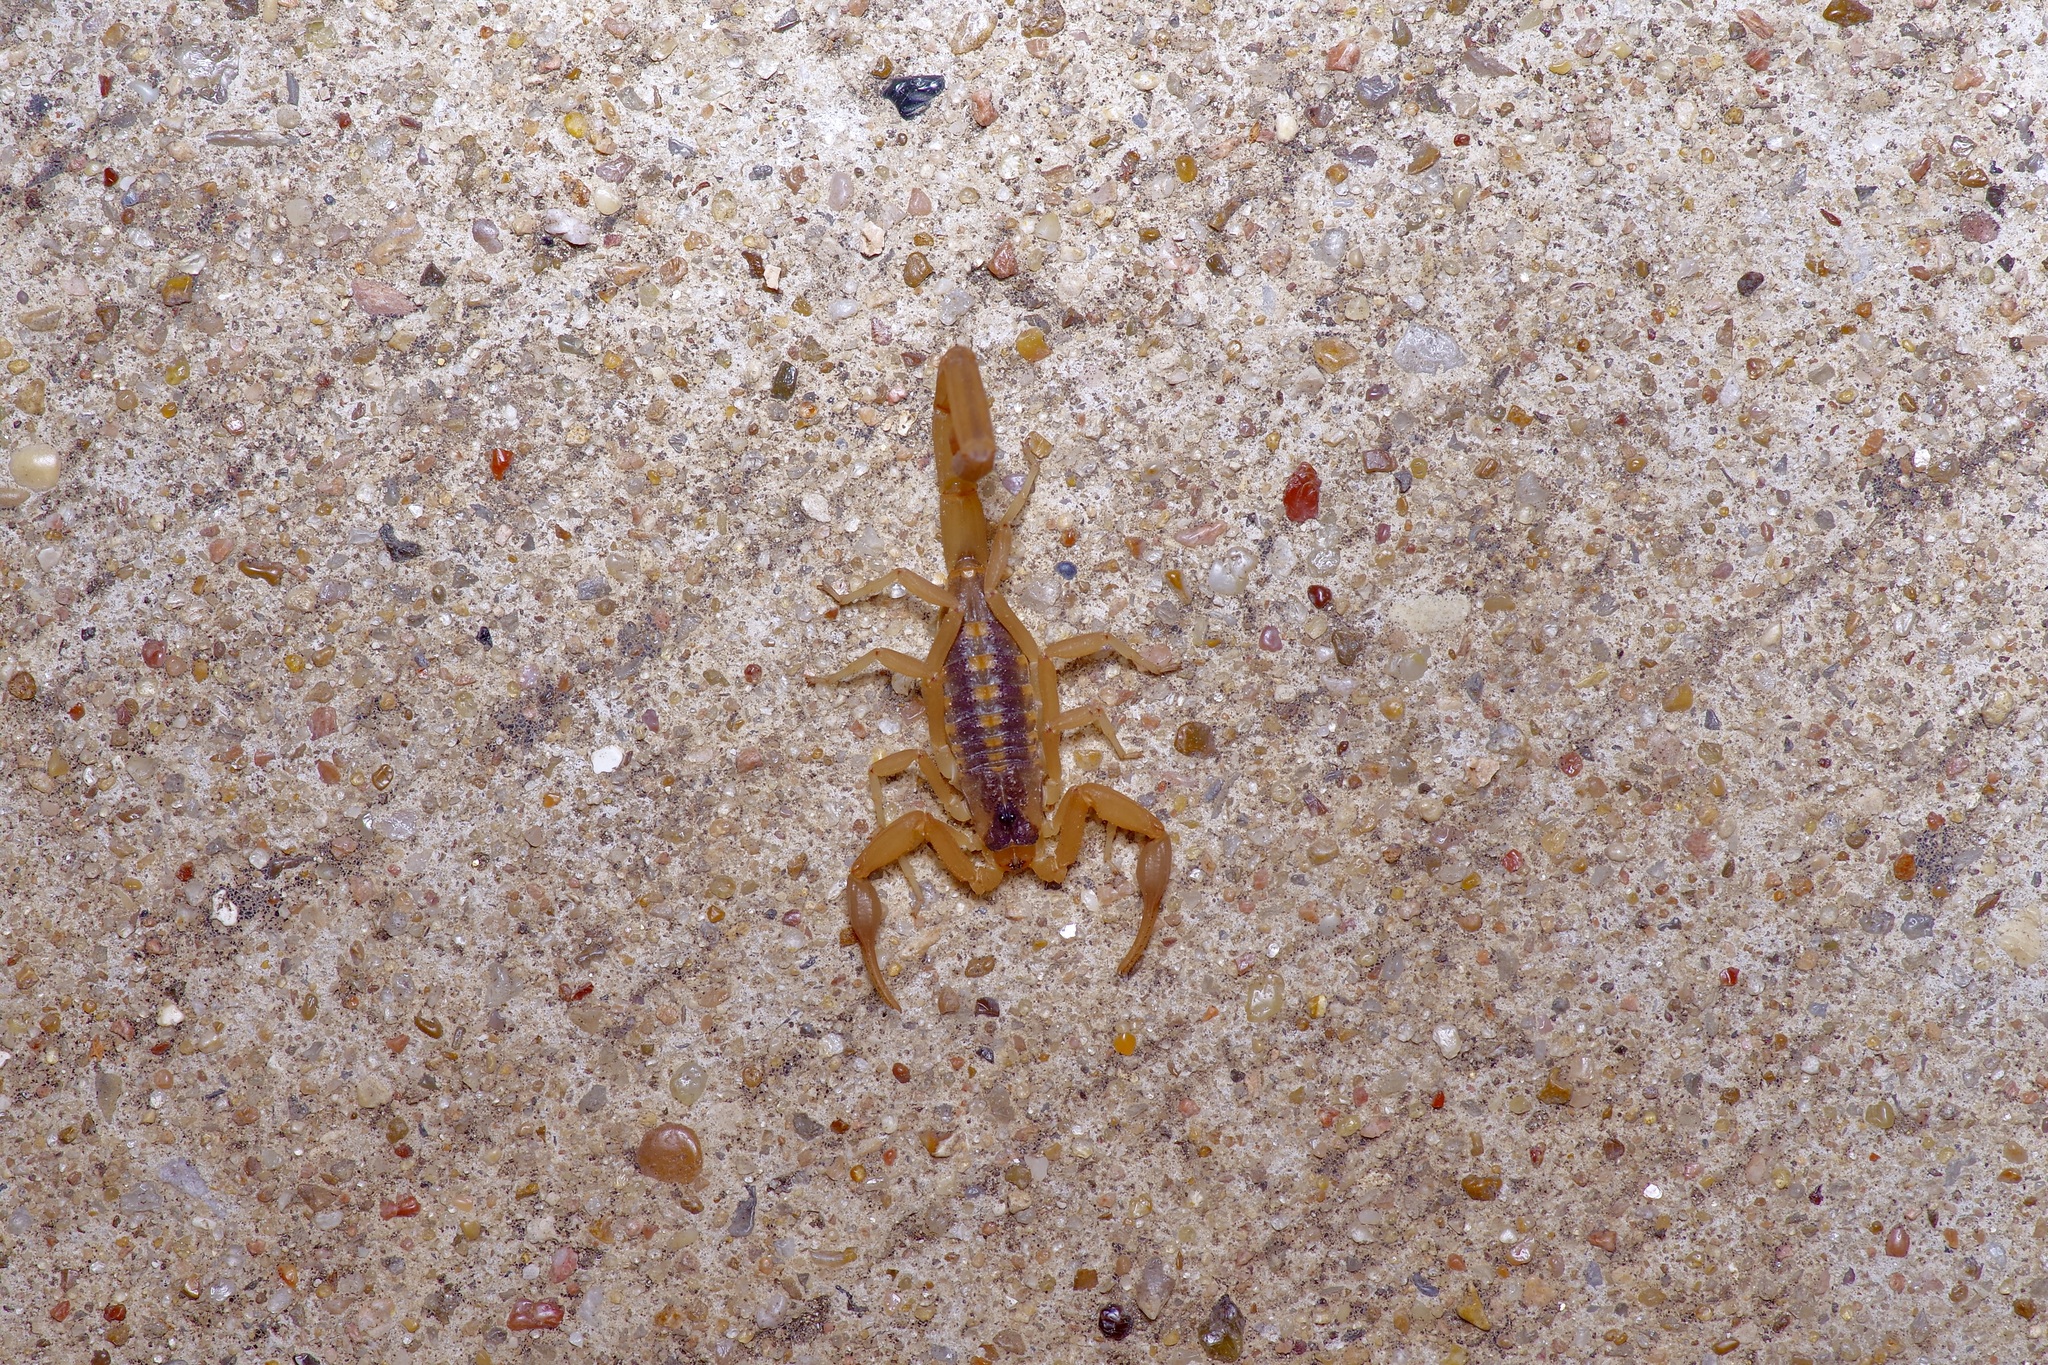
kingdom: Animalia
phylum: Arthropoda
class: Arachnida
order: Scorpiones
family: Buthidae
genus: Centruroides
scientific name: Centruroides vittatus
